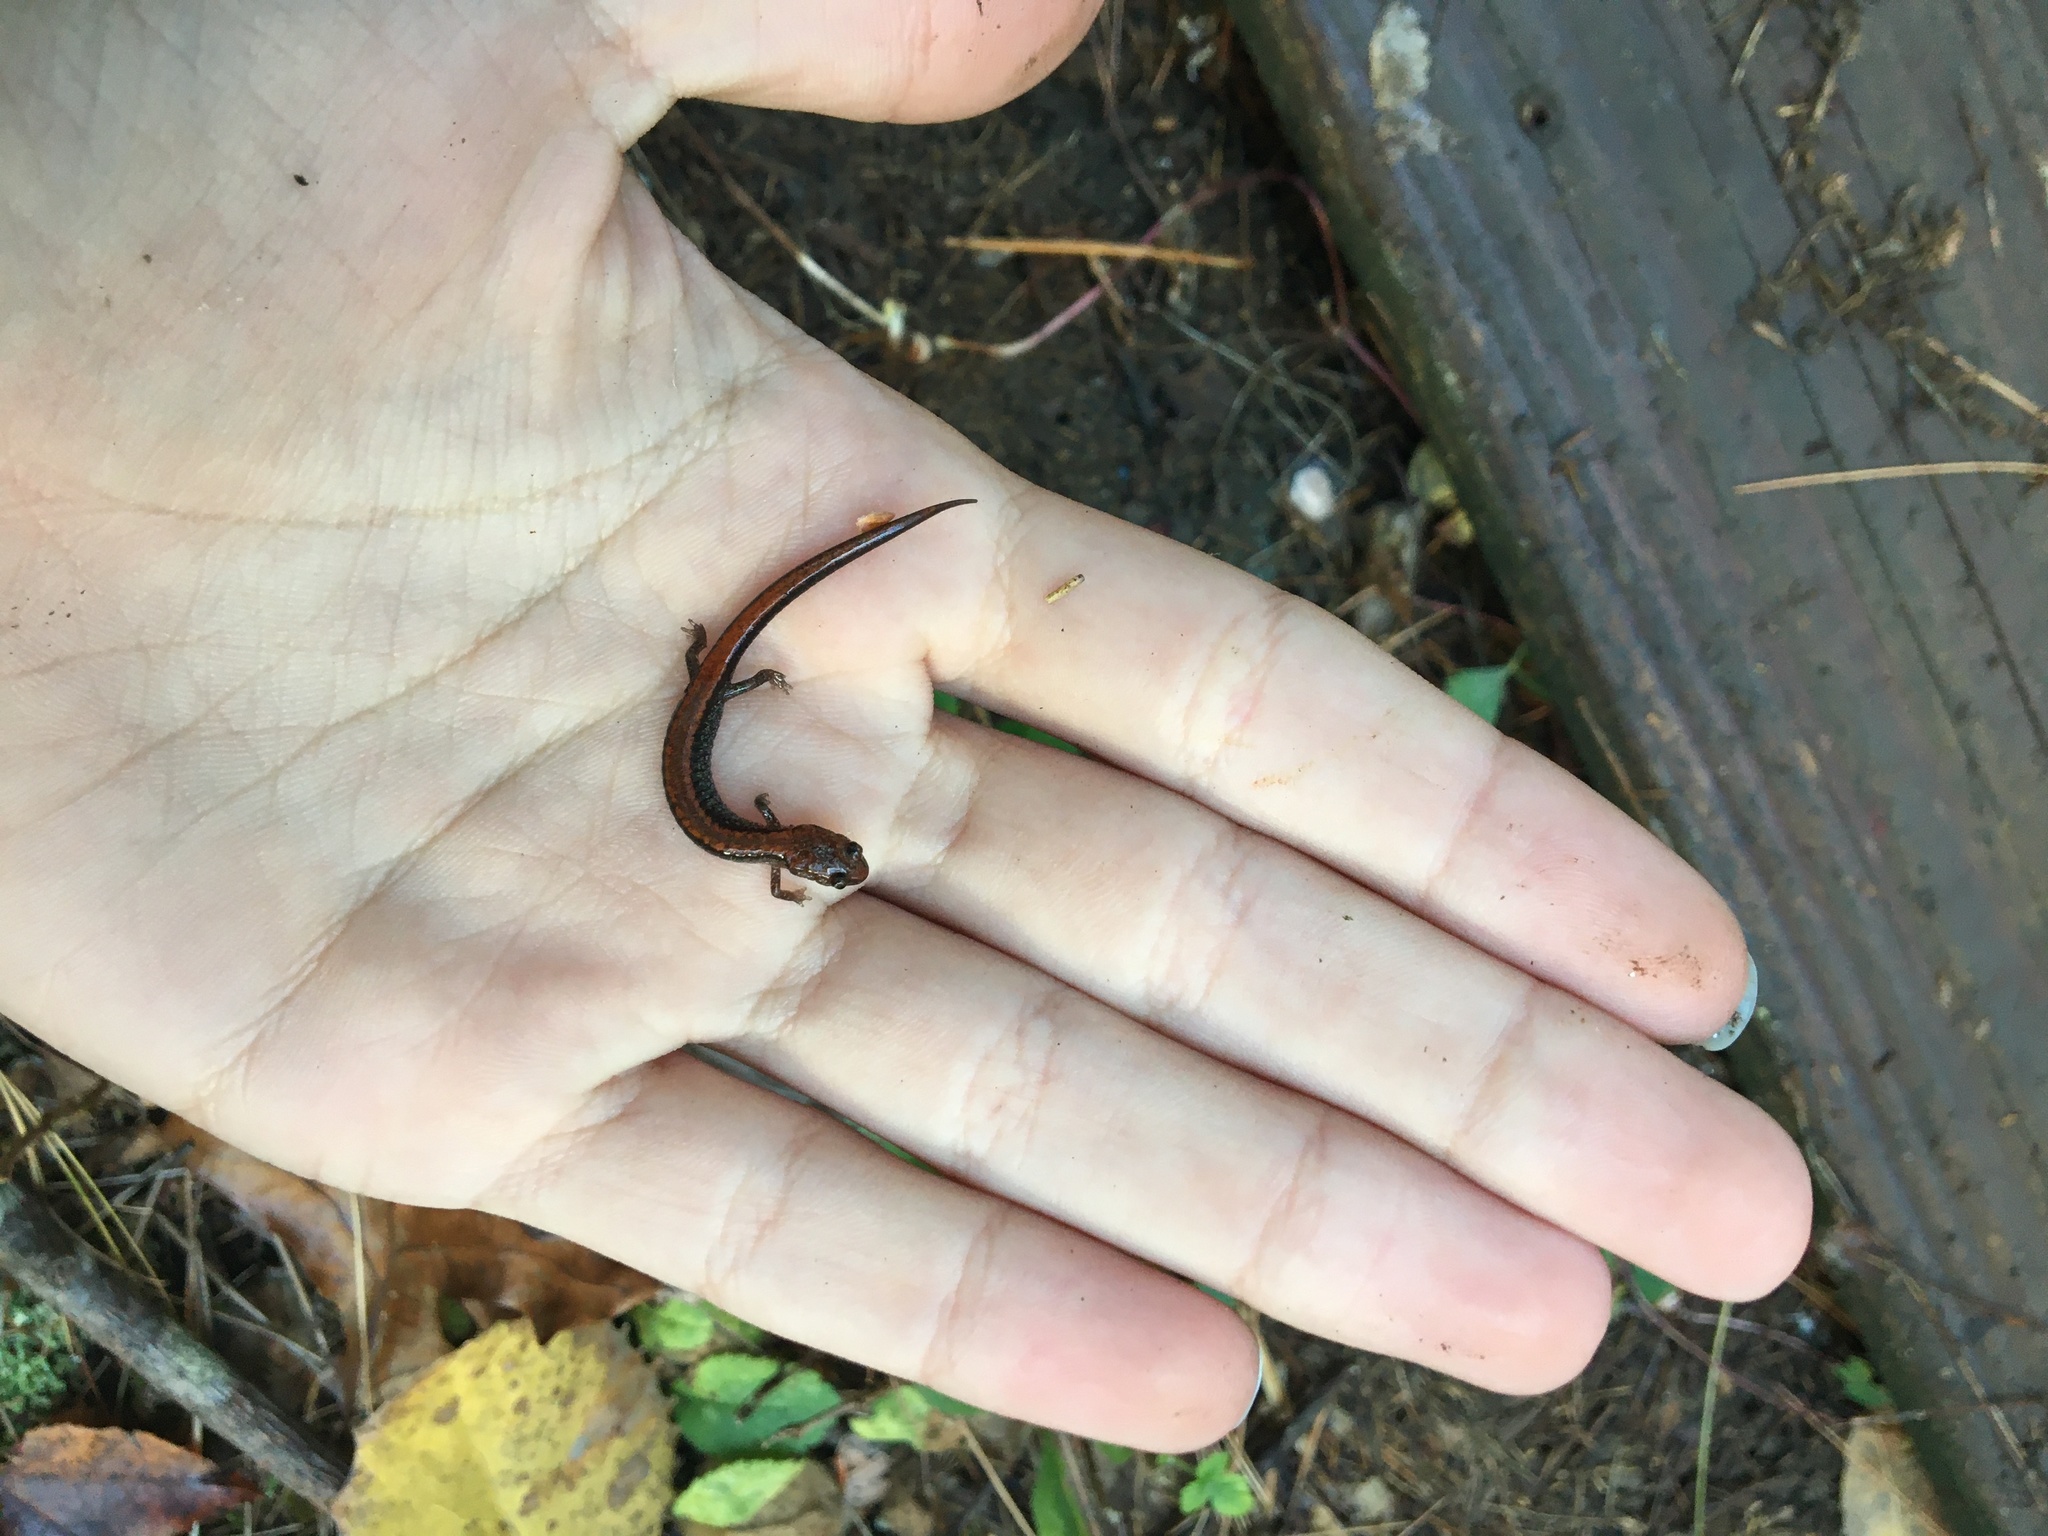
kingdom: Animalia
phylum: Chordata
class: Amphibia
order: Caudata
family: Plethodontidae
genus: Plethodon
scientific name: Plethodon cinereus
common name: Redback salamander
